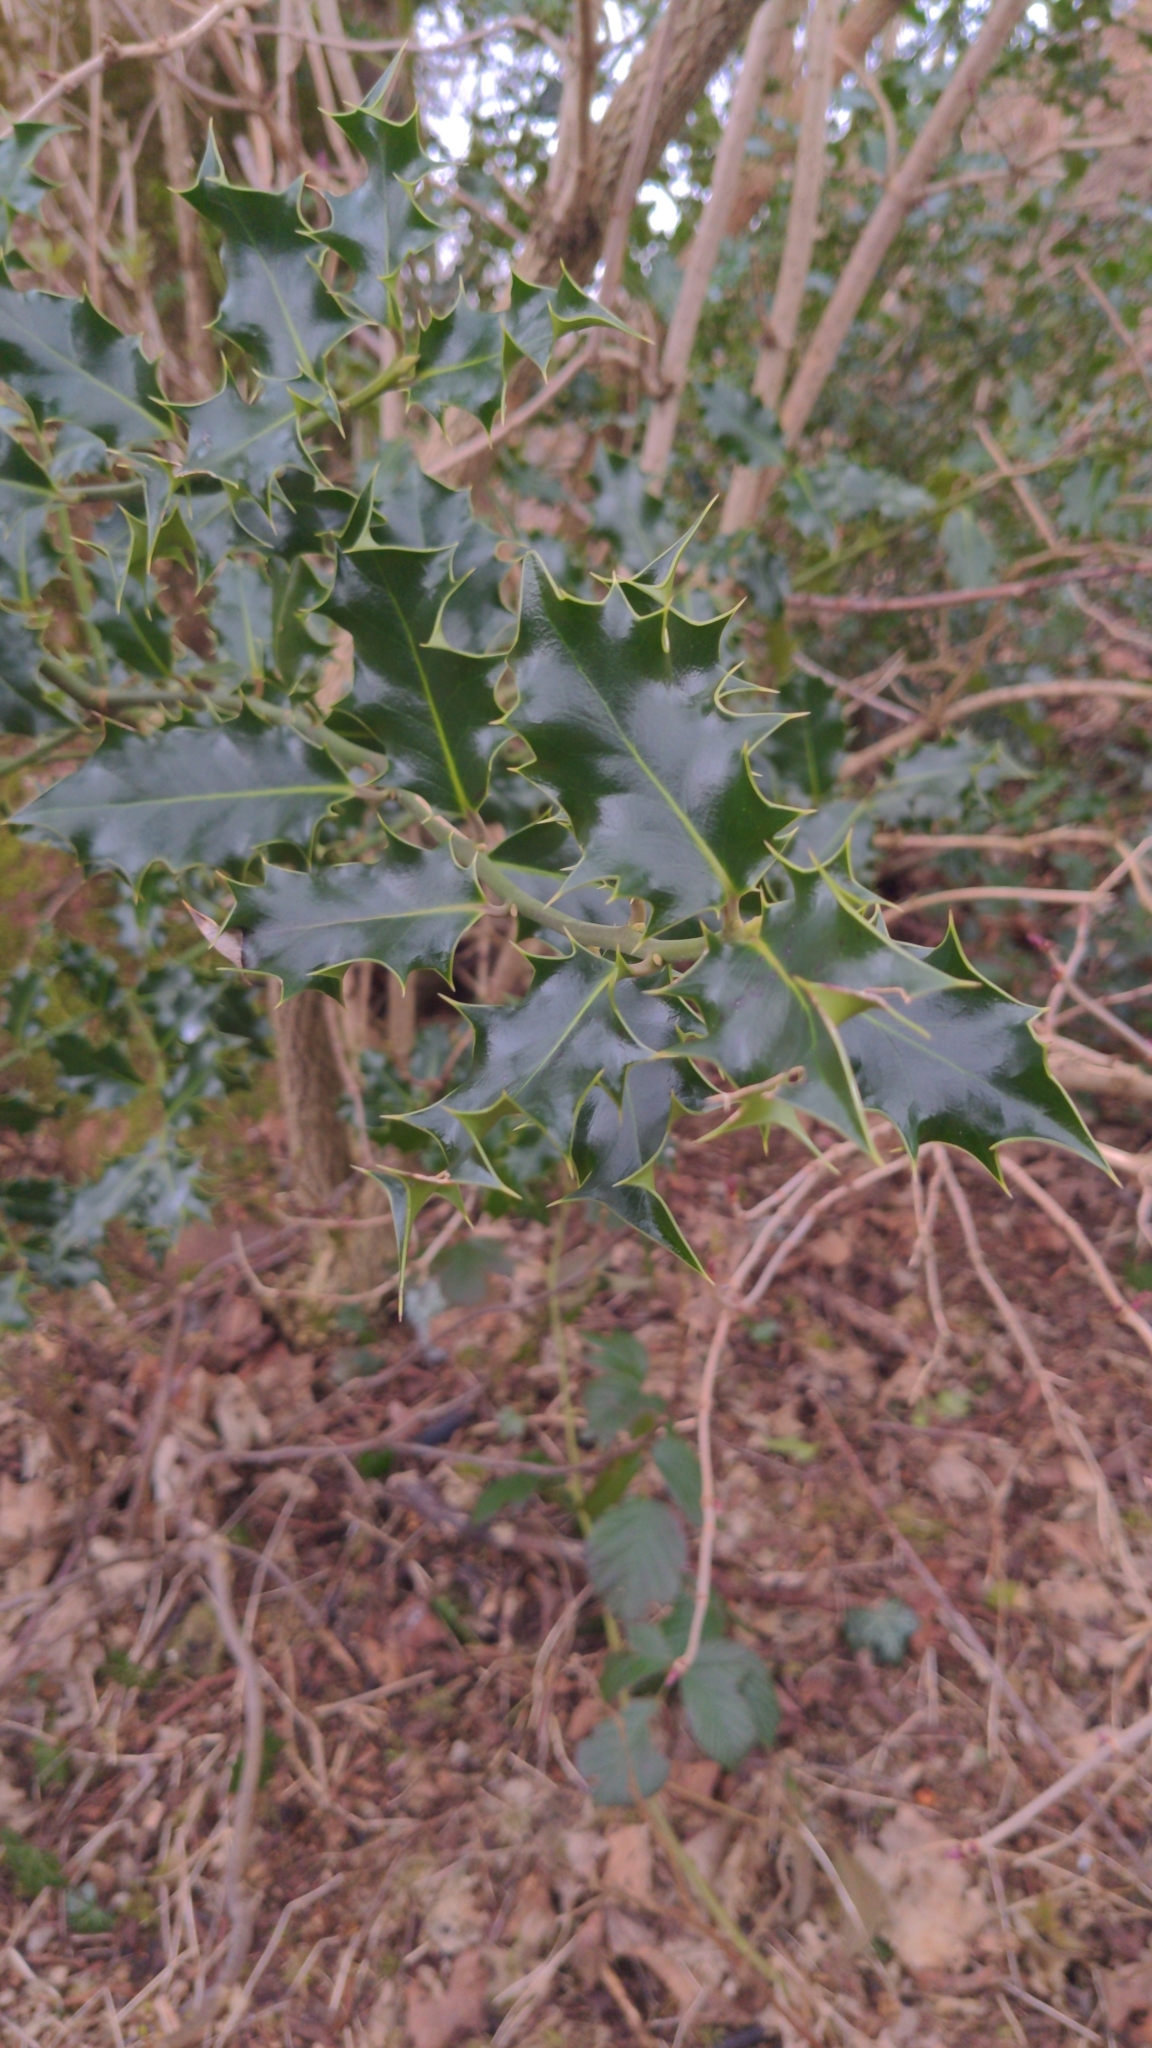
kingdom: Plantae
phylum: Tracheophyta
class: Magnoliopsida
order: Aquifoliales
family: Aquifoliaceae
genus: Ilex
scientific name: Ilex aquifolium
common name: English holly
